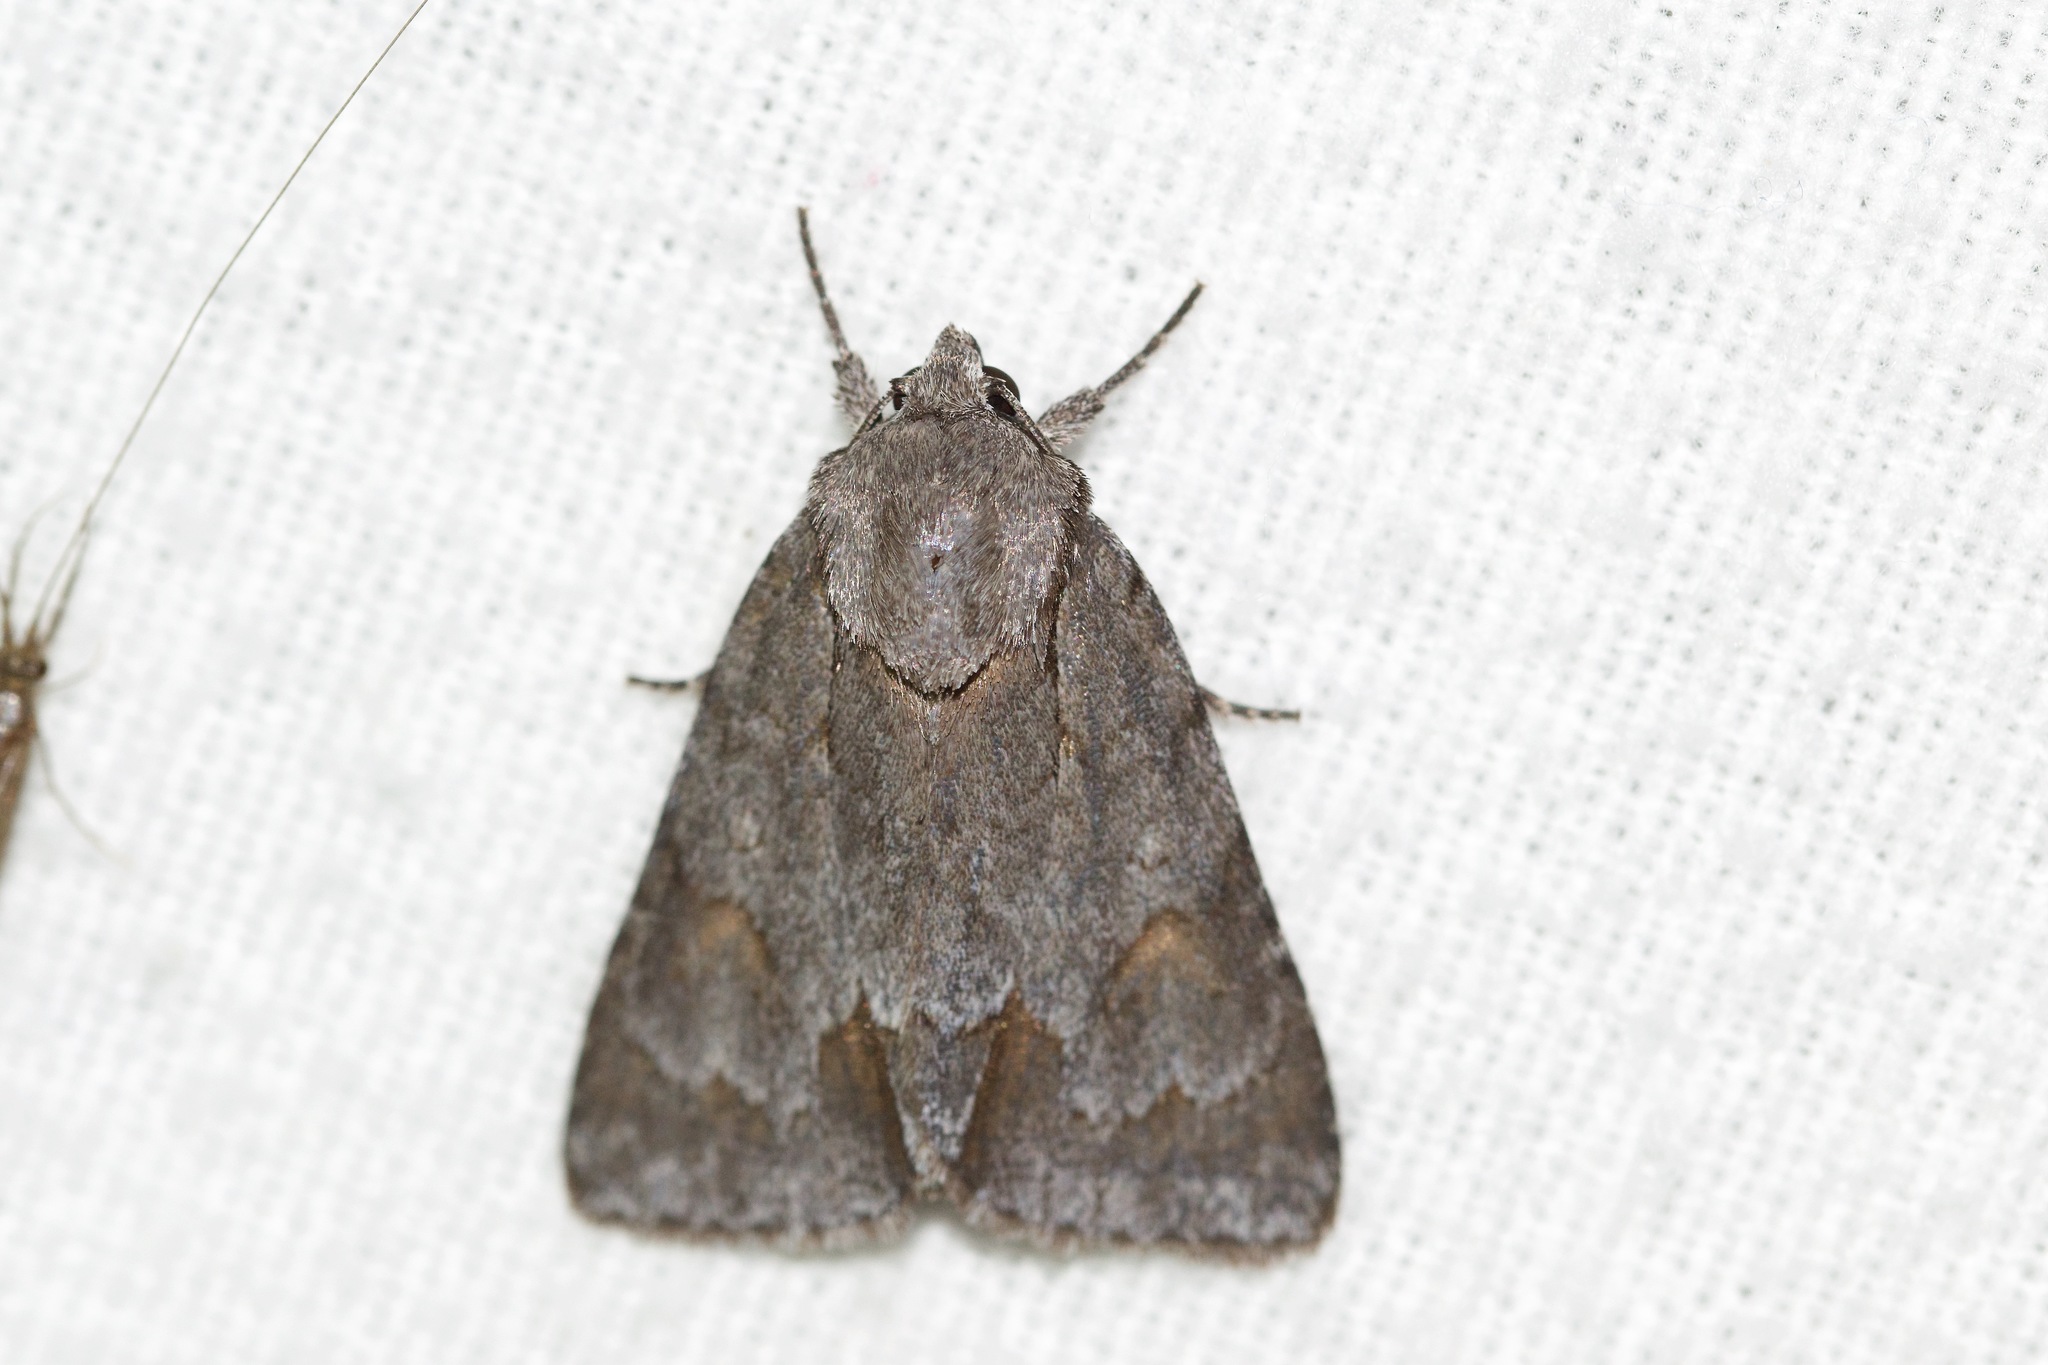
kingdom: Animalia
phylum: Arthropoda
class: Insecta
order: Lepidoptera
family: Noctuidae
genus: Acronicta
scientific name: Acronicta tritona
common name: Triton dagger
